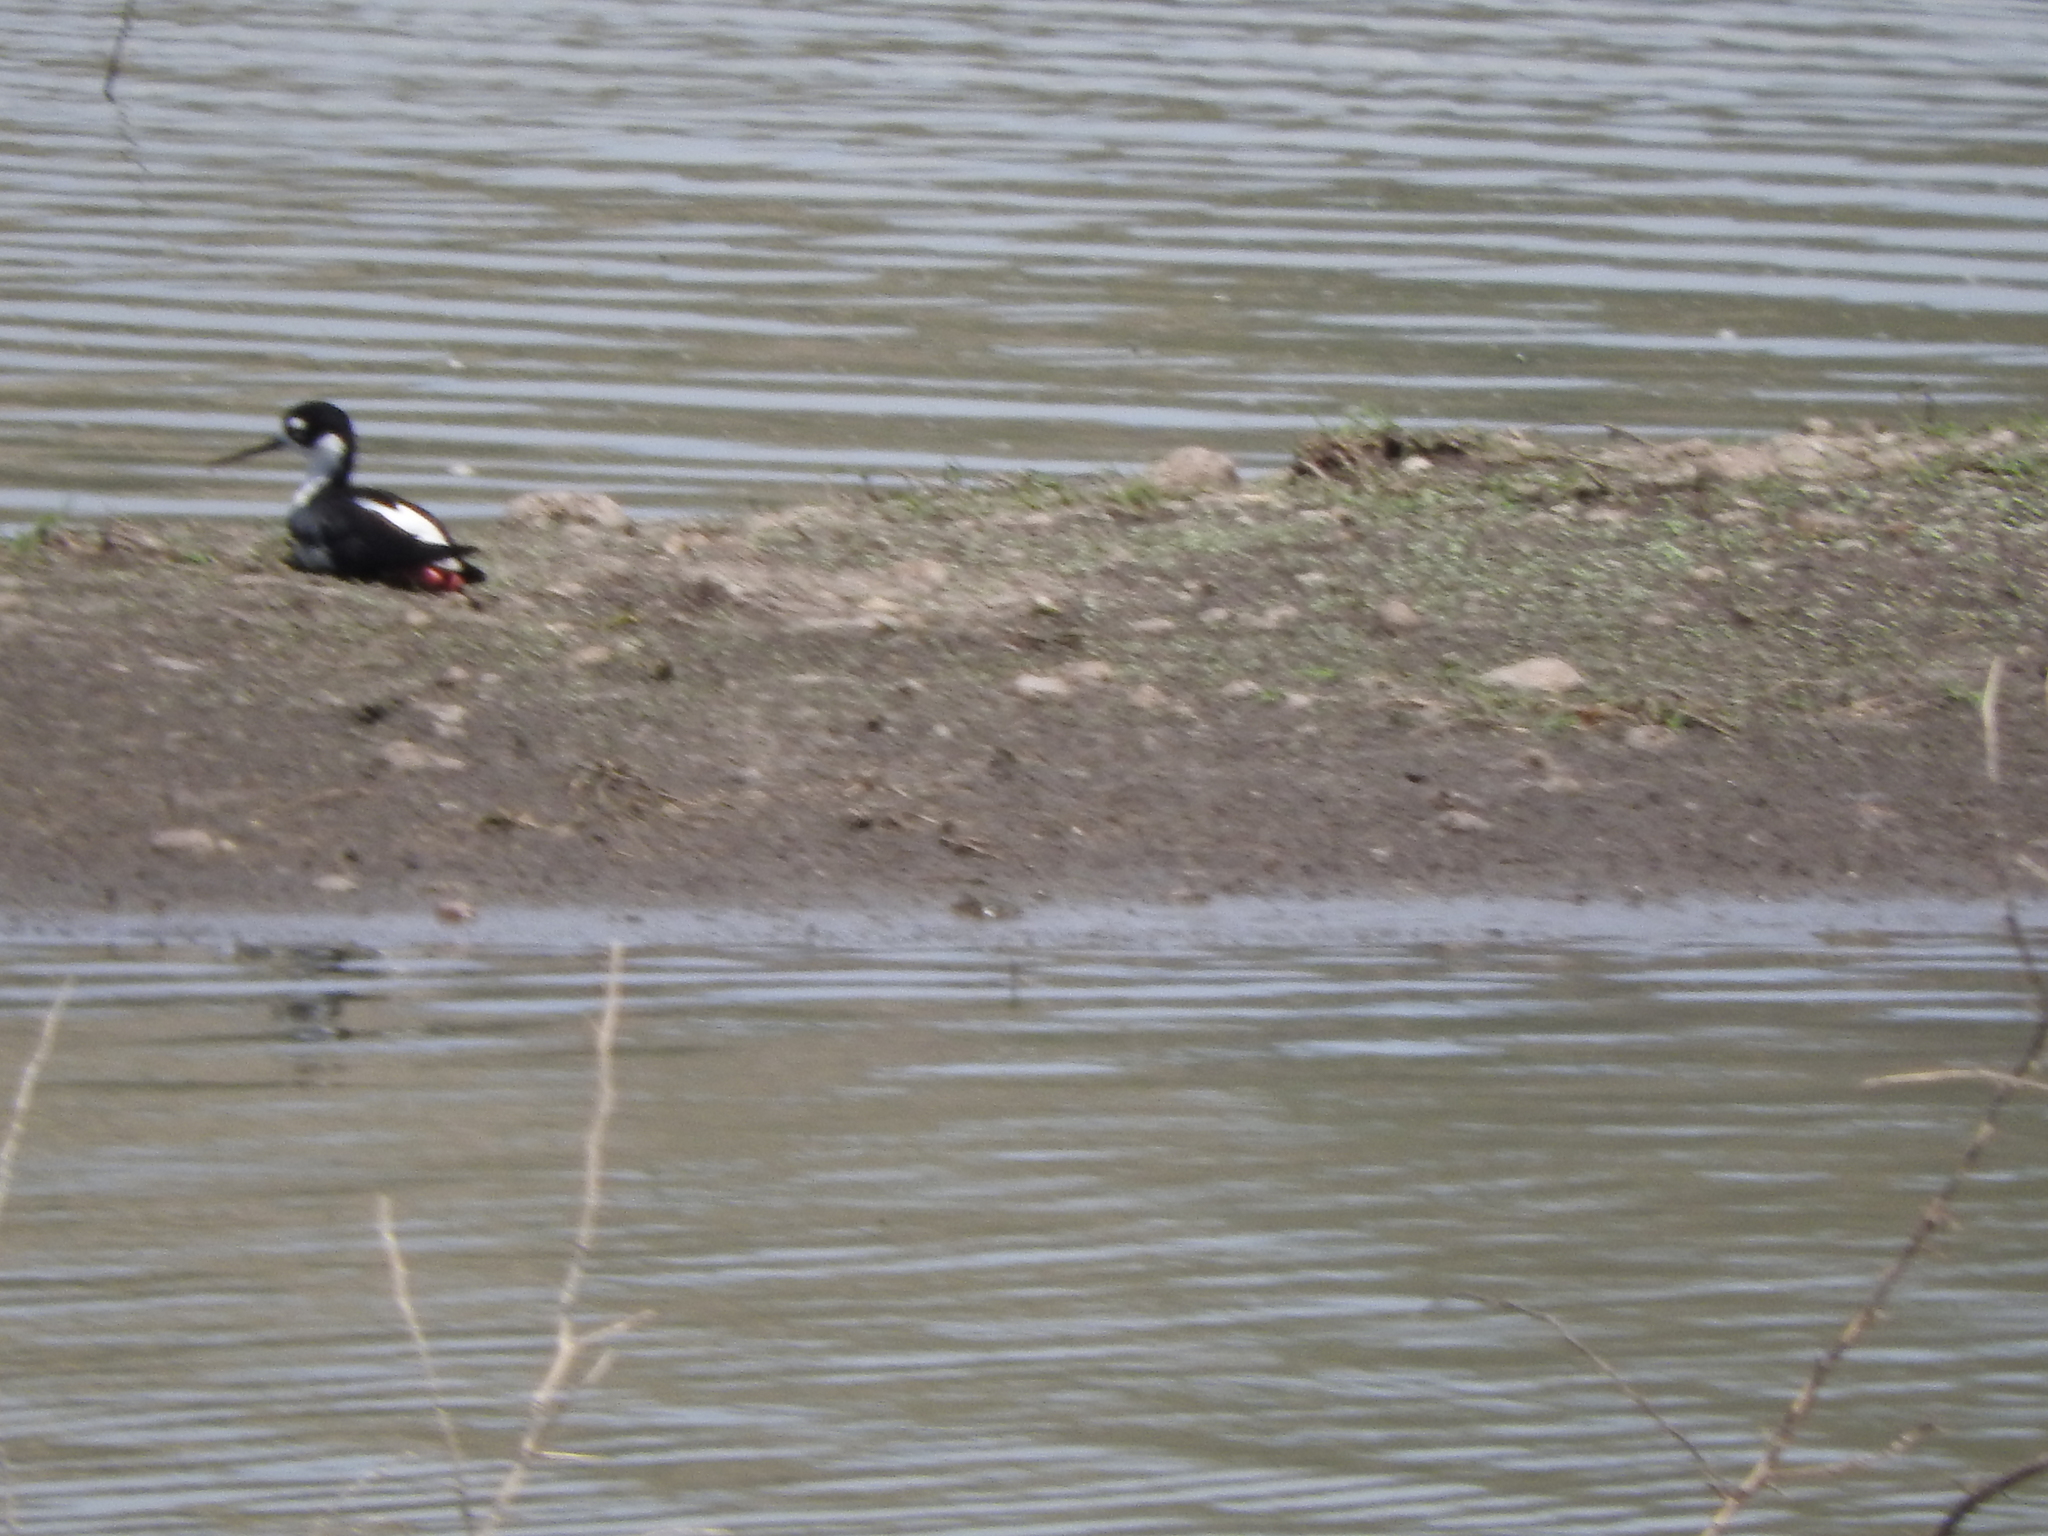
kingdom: Animalia
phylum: Chordata
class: Aves
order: Charadriiformes
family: Recurvirostridae
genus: Himantopus
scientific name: Himantopus mexicanus
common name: Black-necked stilt
